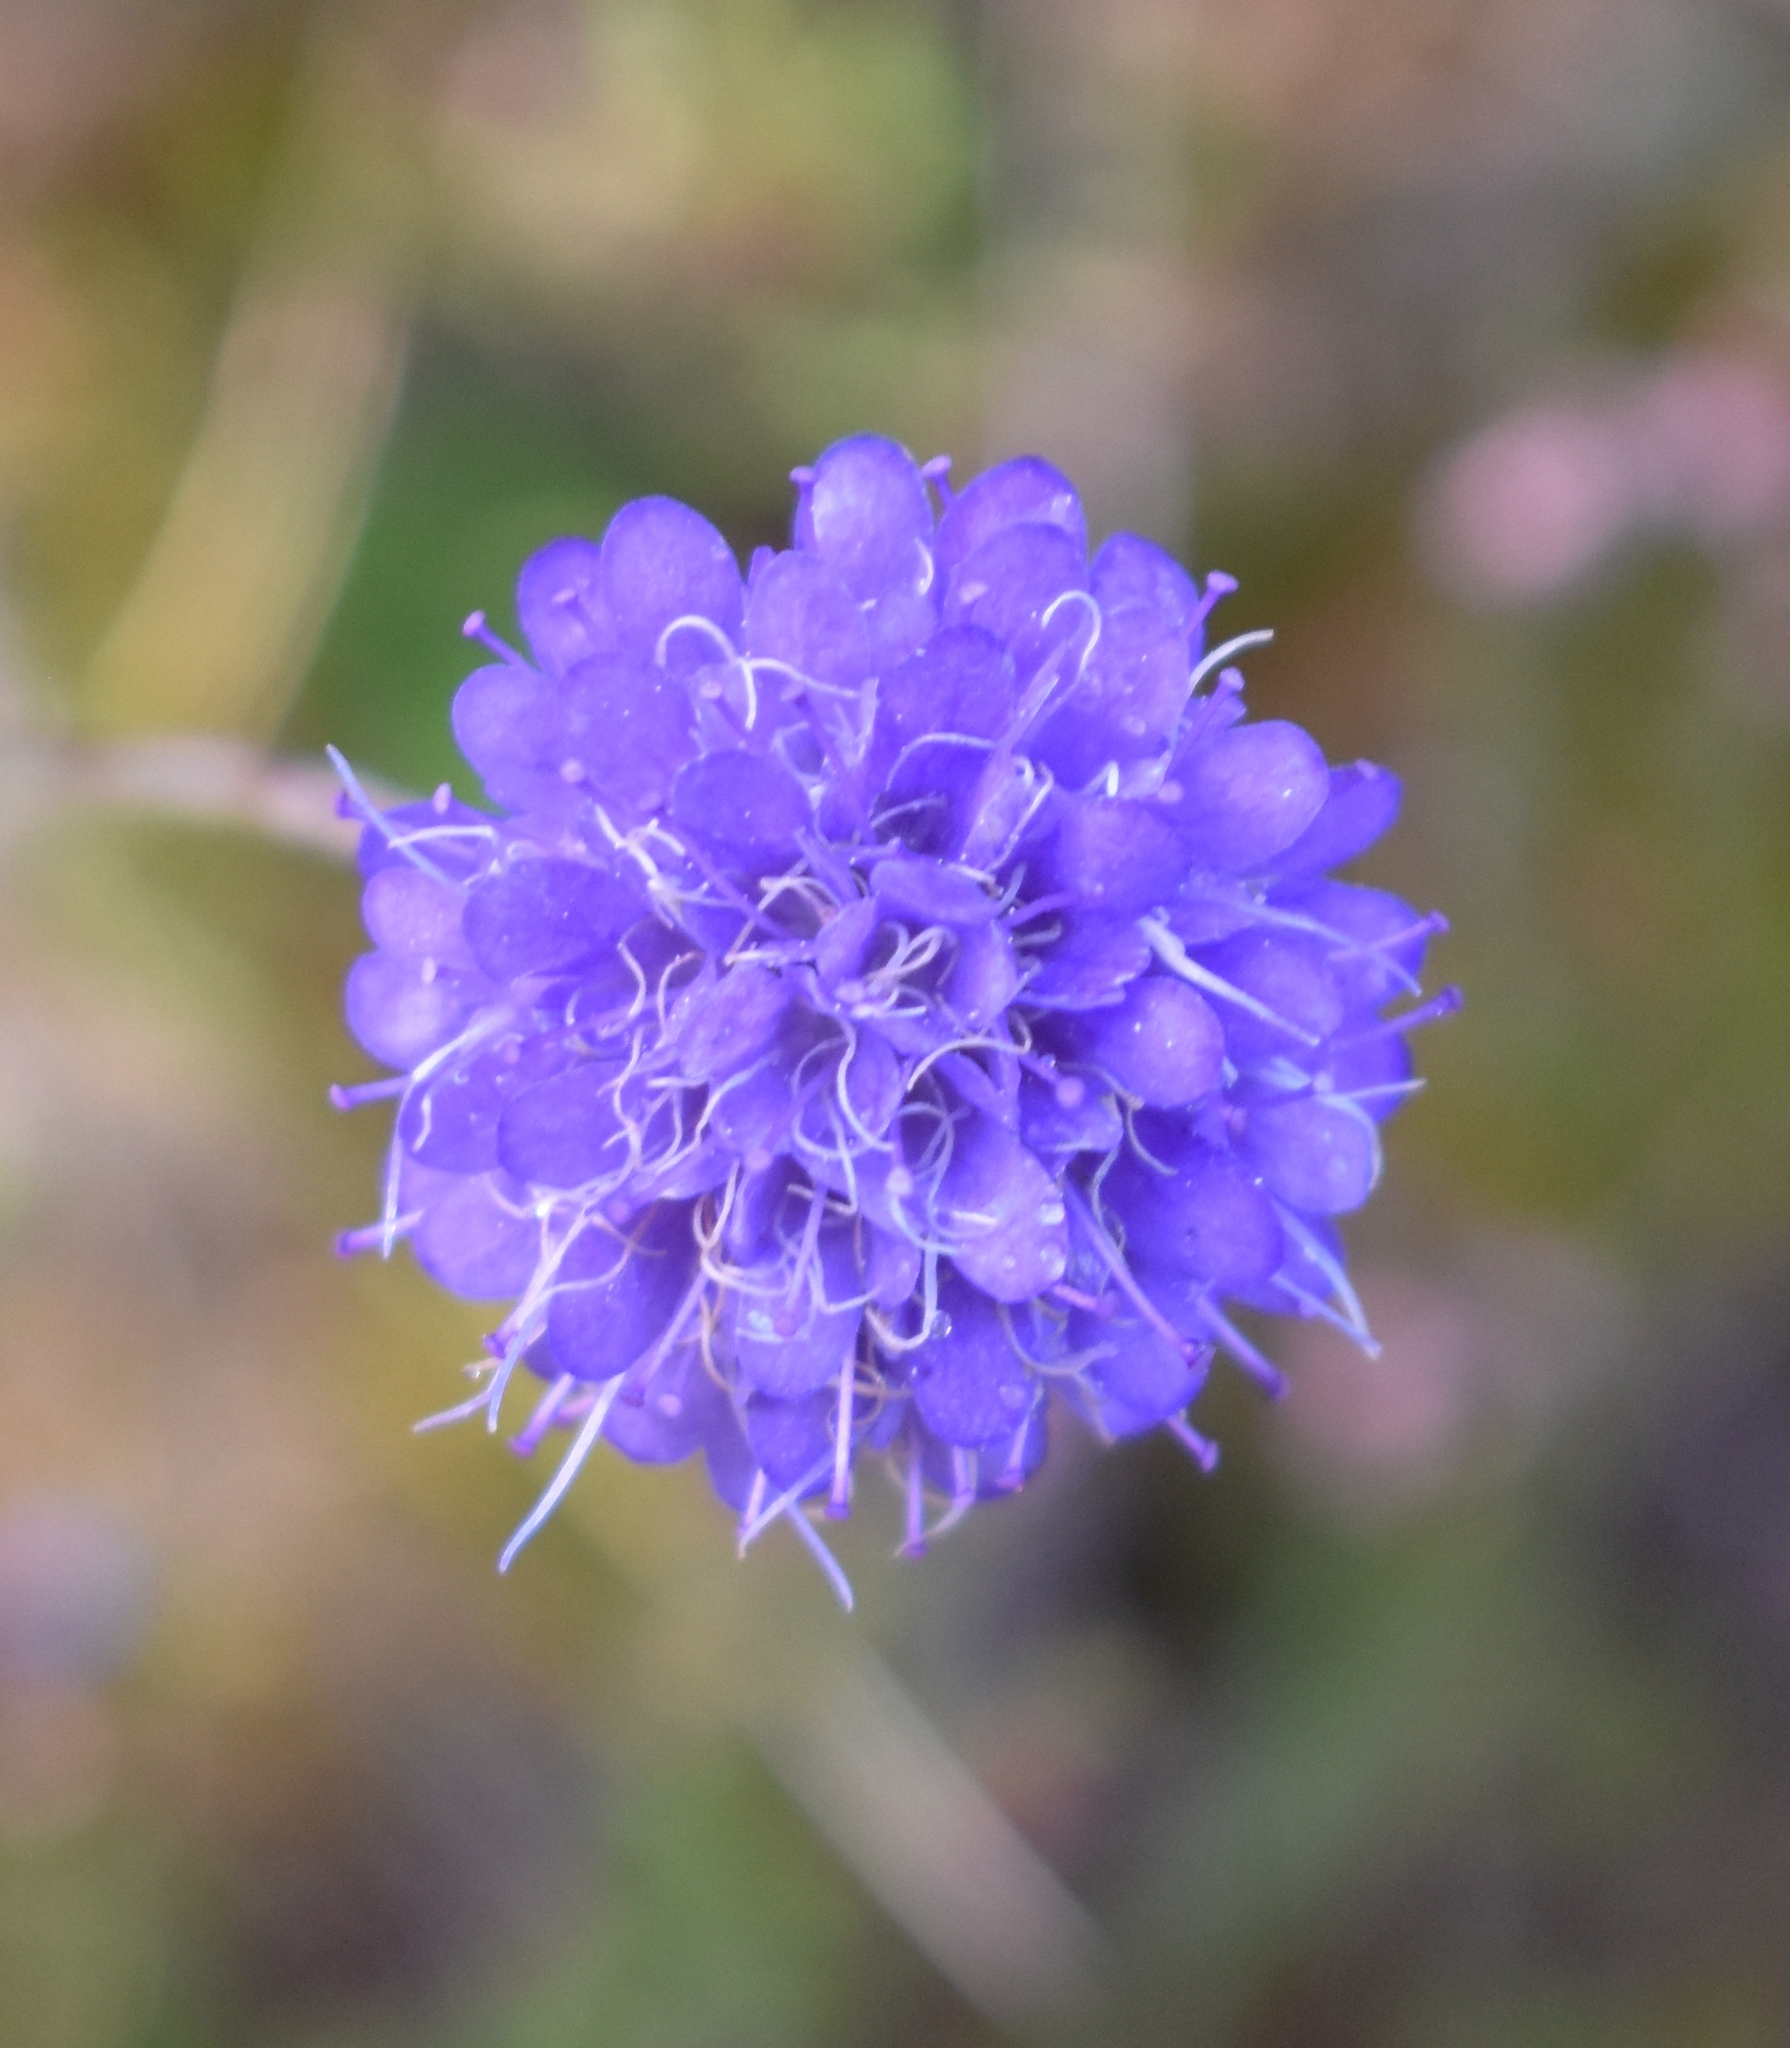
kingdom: Plantae
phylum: Tracheophyta
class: Magnoliopsida
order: Dipsacales
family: Caprifoliaceae
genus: Succisa
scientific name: Succisa pratensis
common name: Devil's-bit
